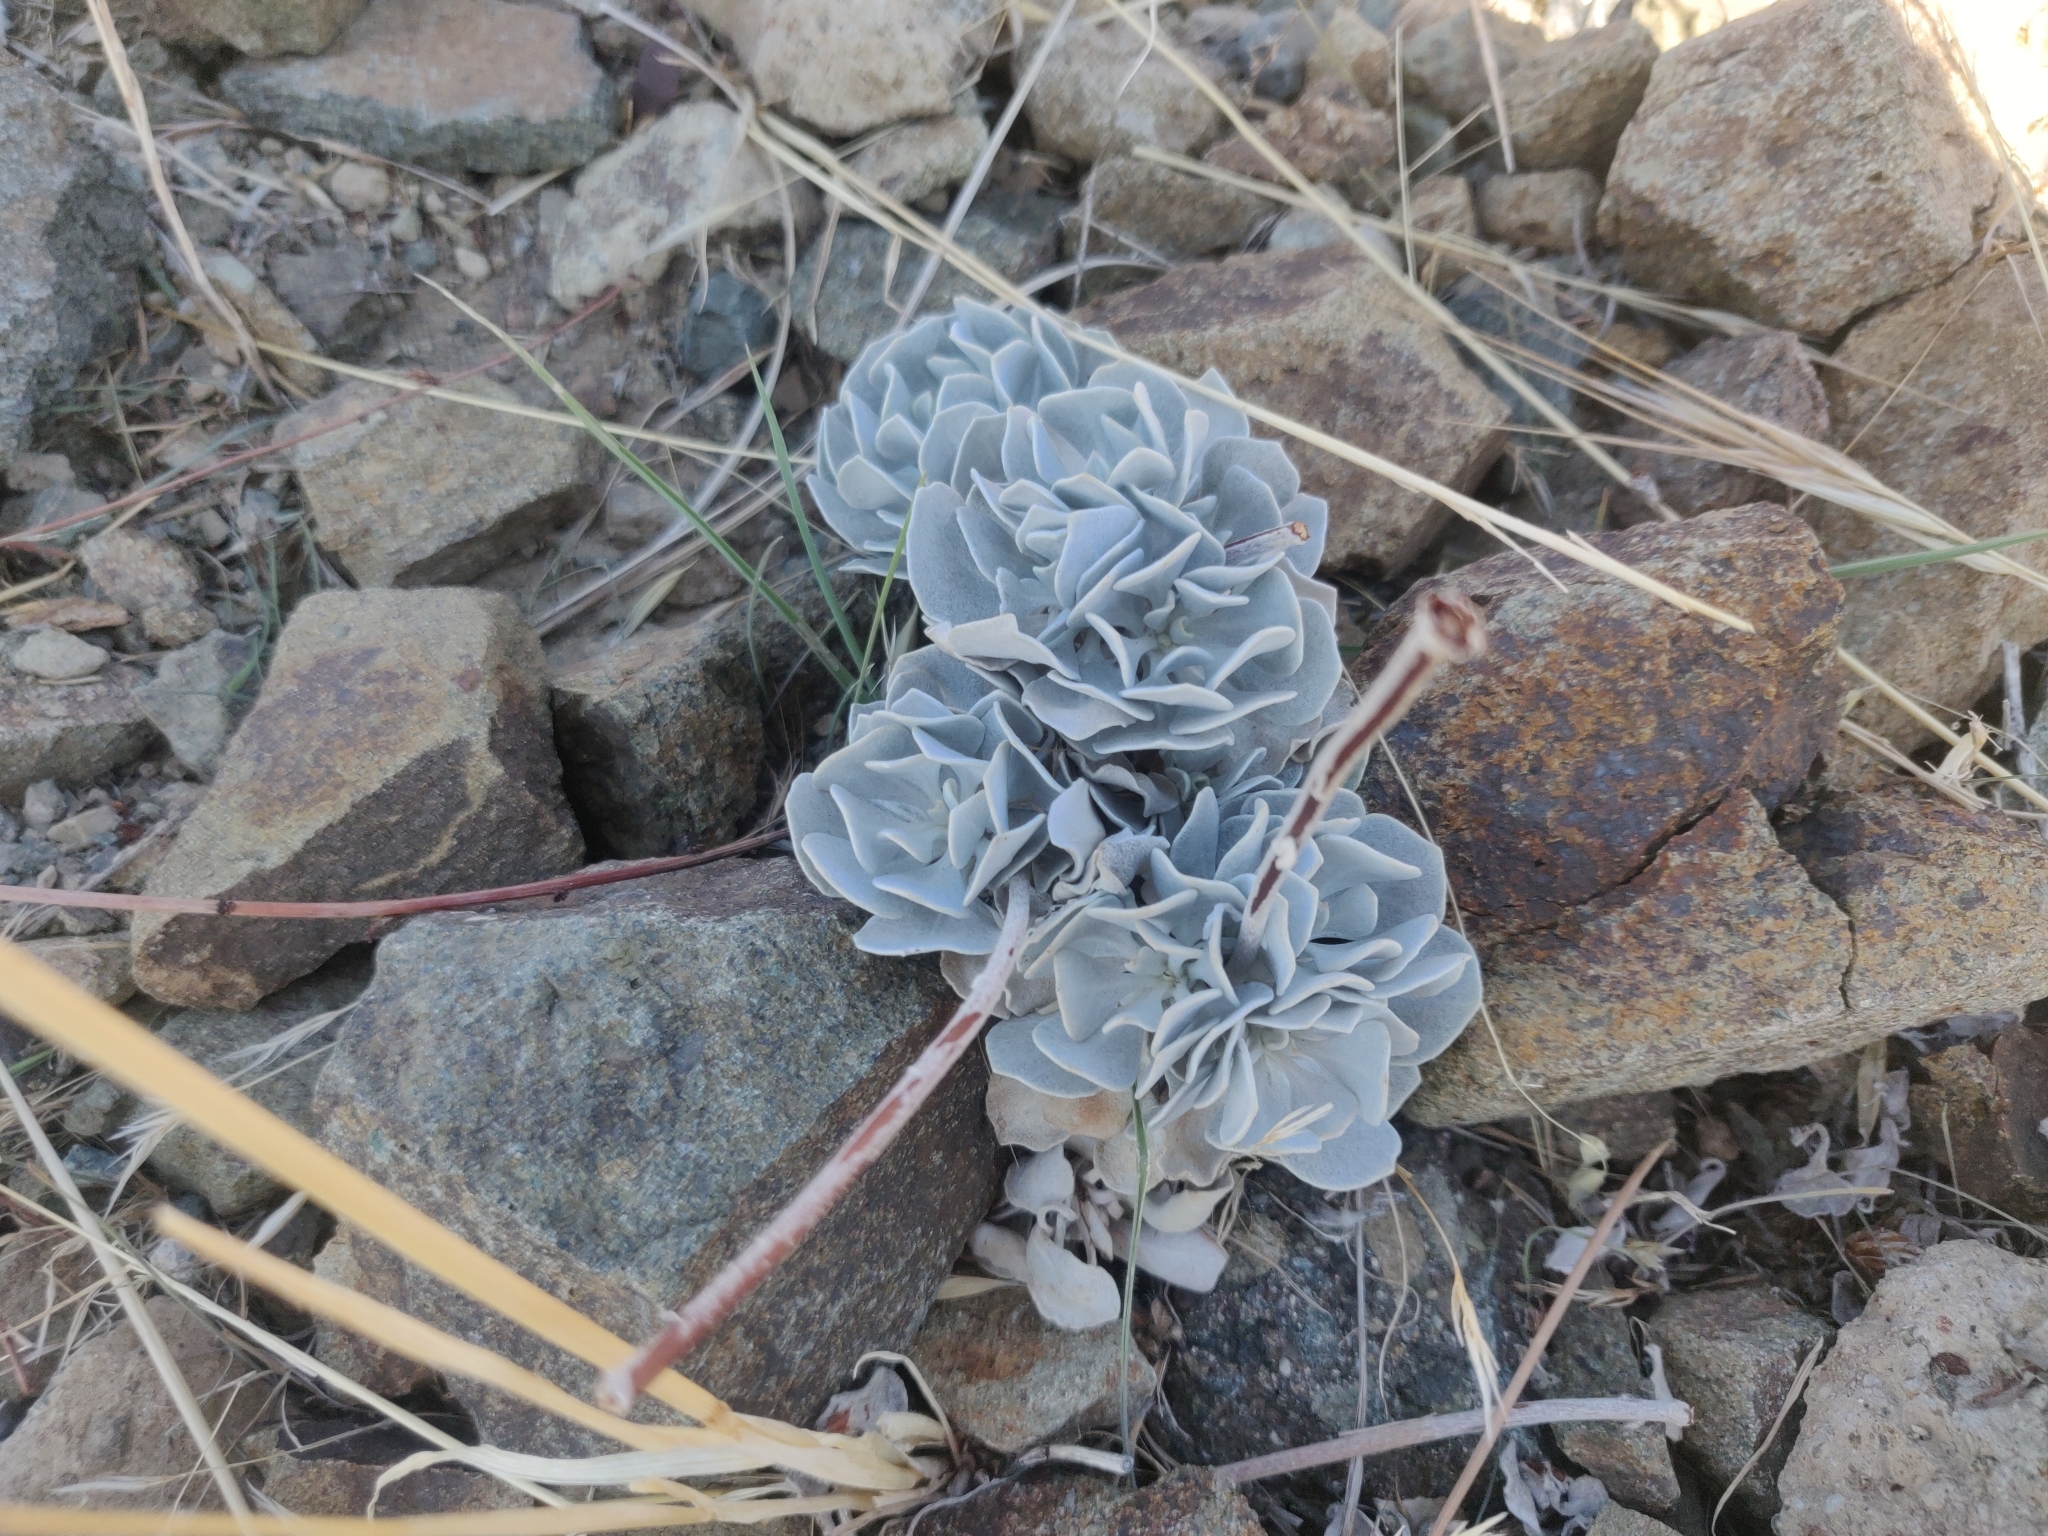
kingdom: Plantae
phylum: Tracheophyta
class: Magnoliopsida
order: Caryophyllales
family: Polygonaceae
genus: Eriogonum
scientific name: Eriogonum saxatile
